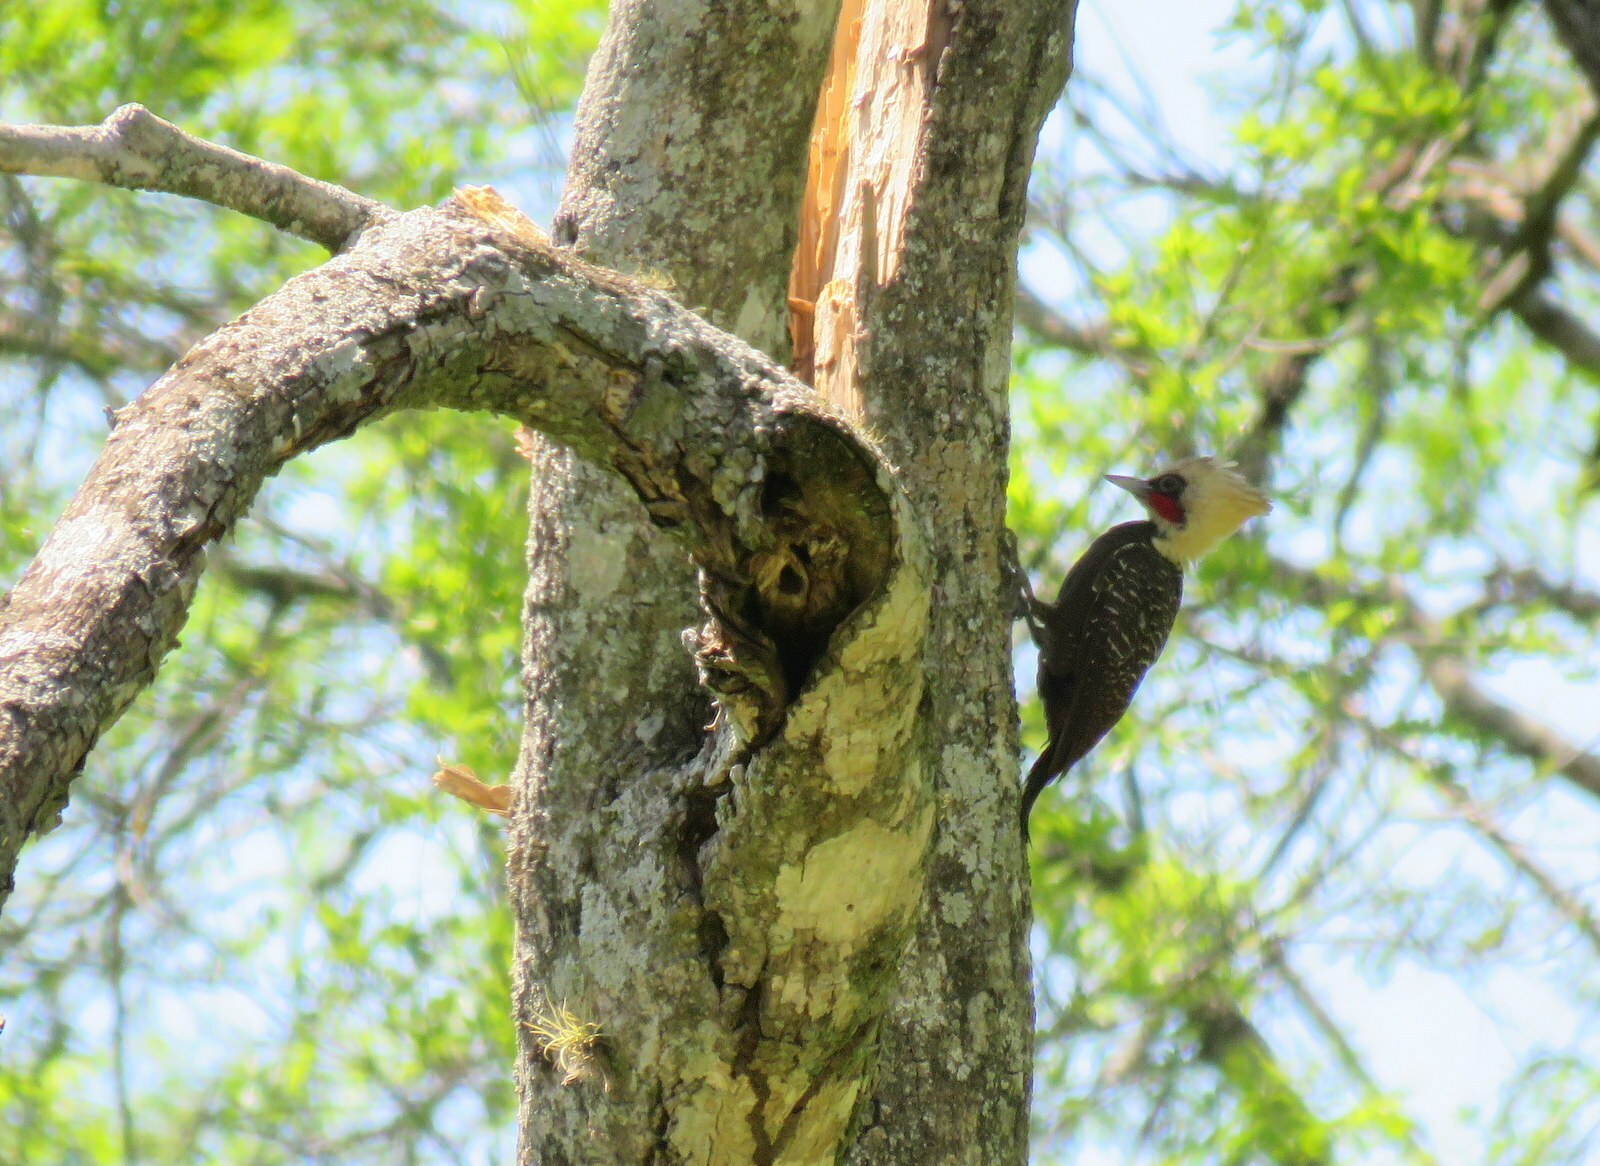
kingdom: Animalia
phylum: Chordata
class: Aves
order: Piciformes
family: Picidae
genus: Celeus
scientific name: Celeus lugubris
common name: Pale-crested woodpecker
